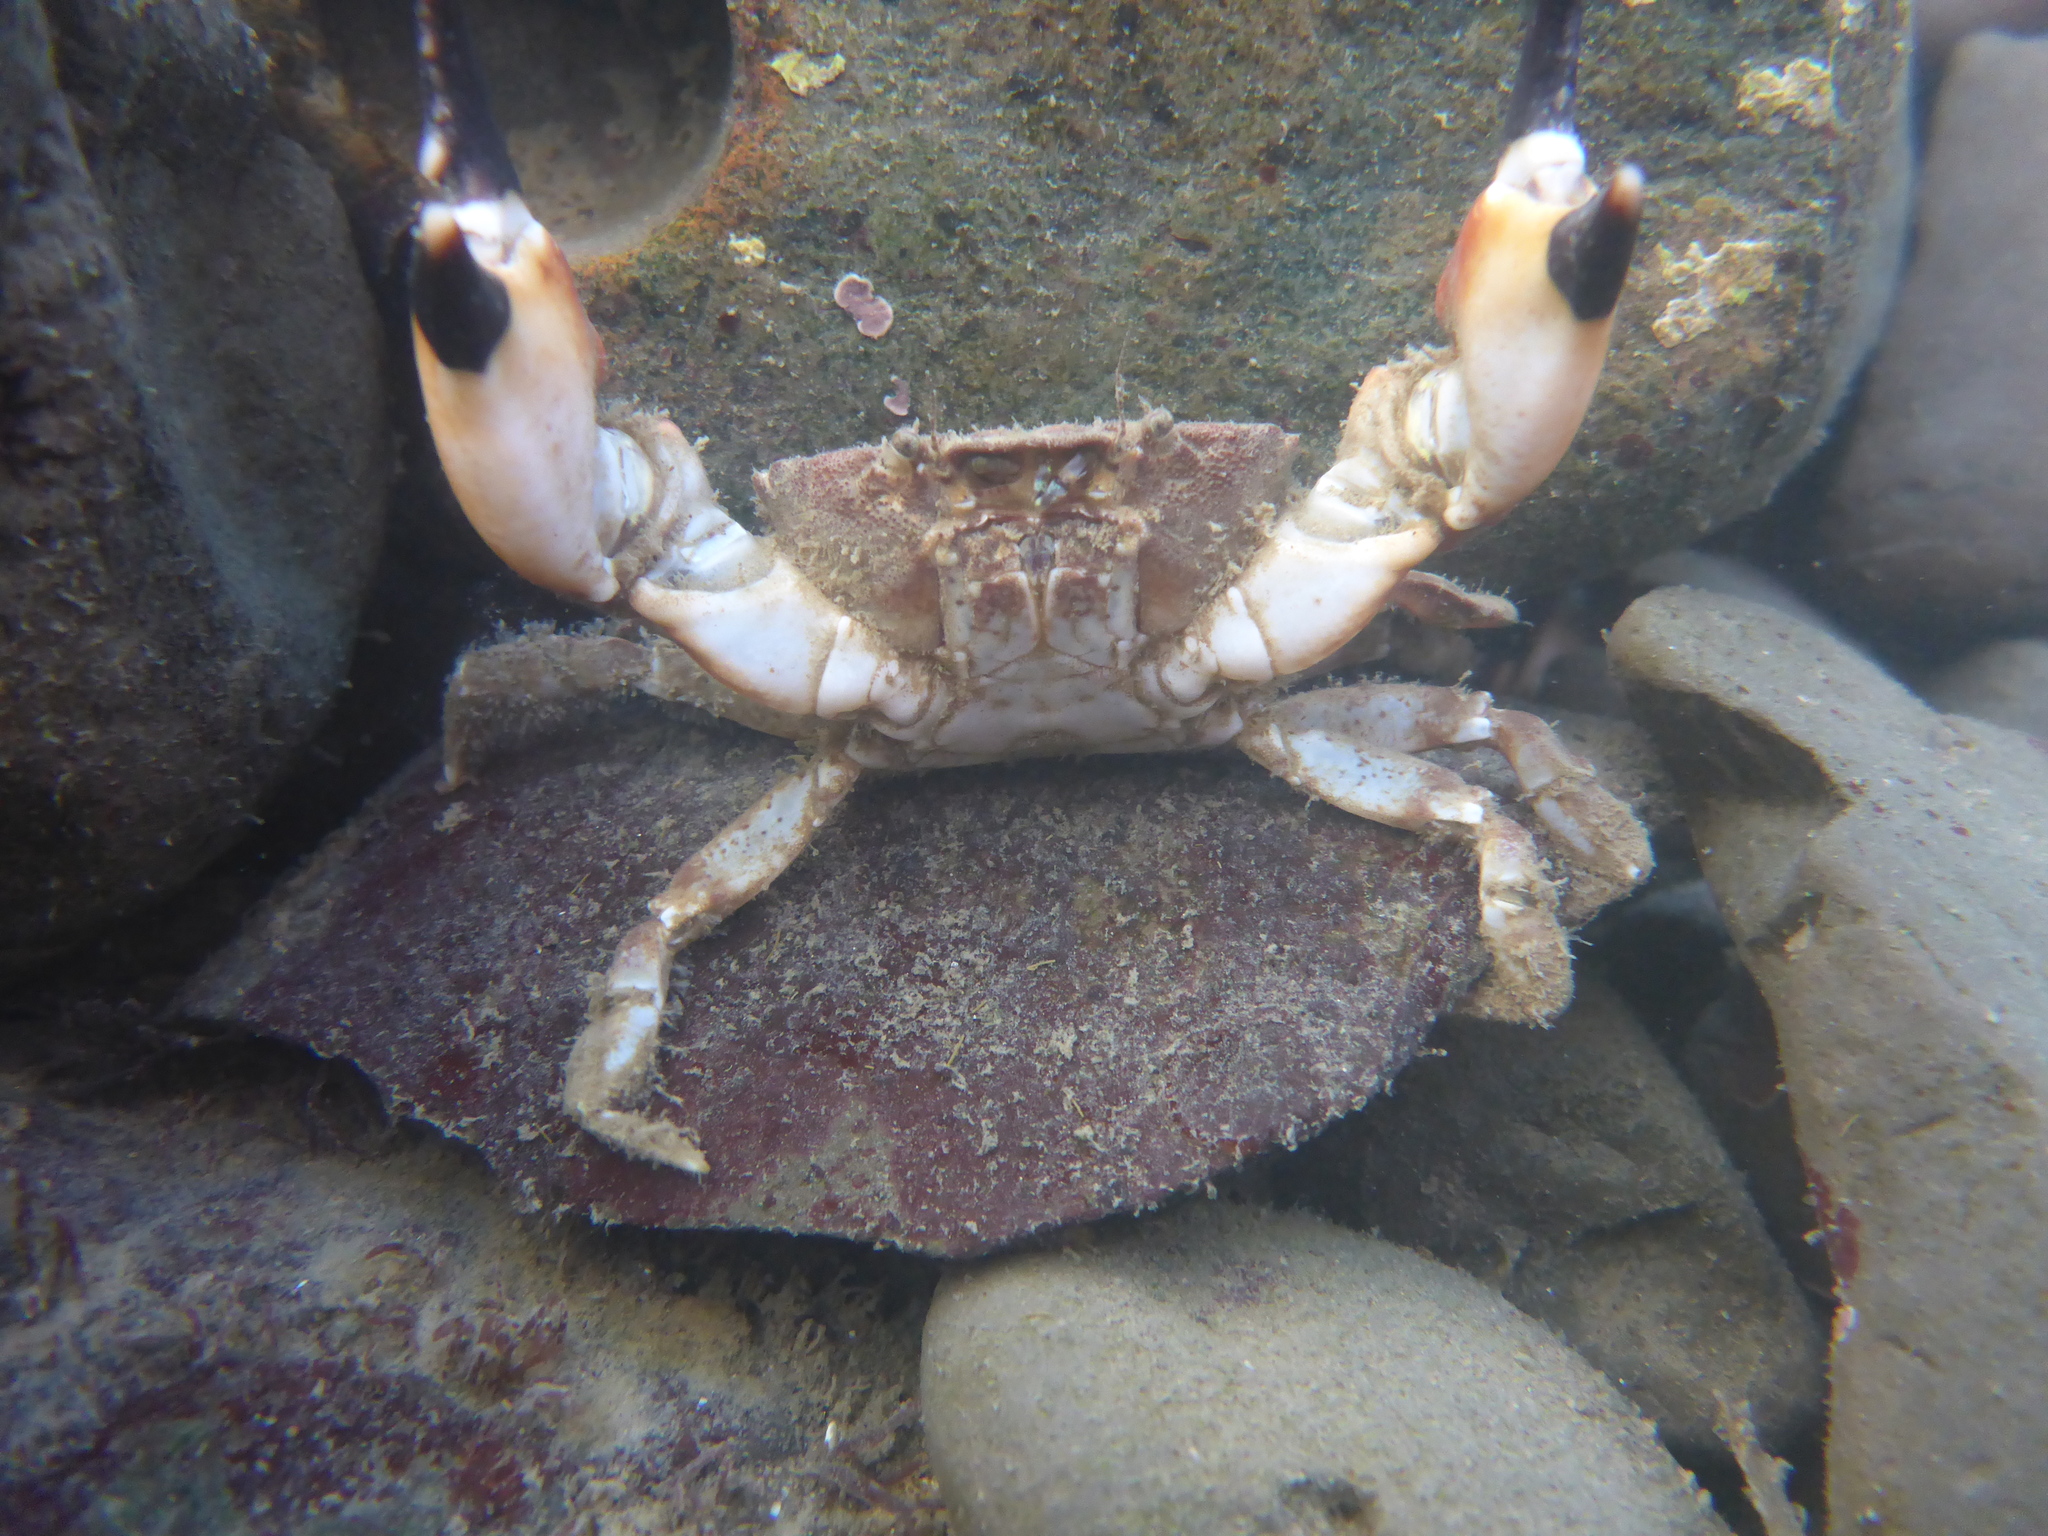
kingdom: Animalia
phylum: Arthropoda
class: Malacostraca
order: Decapoda
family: Panopeidae
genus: Lophopanopeus
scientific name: Lophopanopeus bellus
